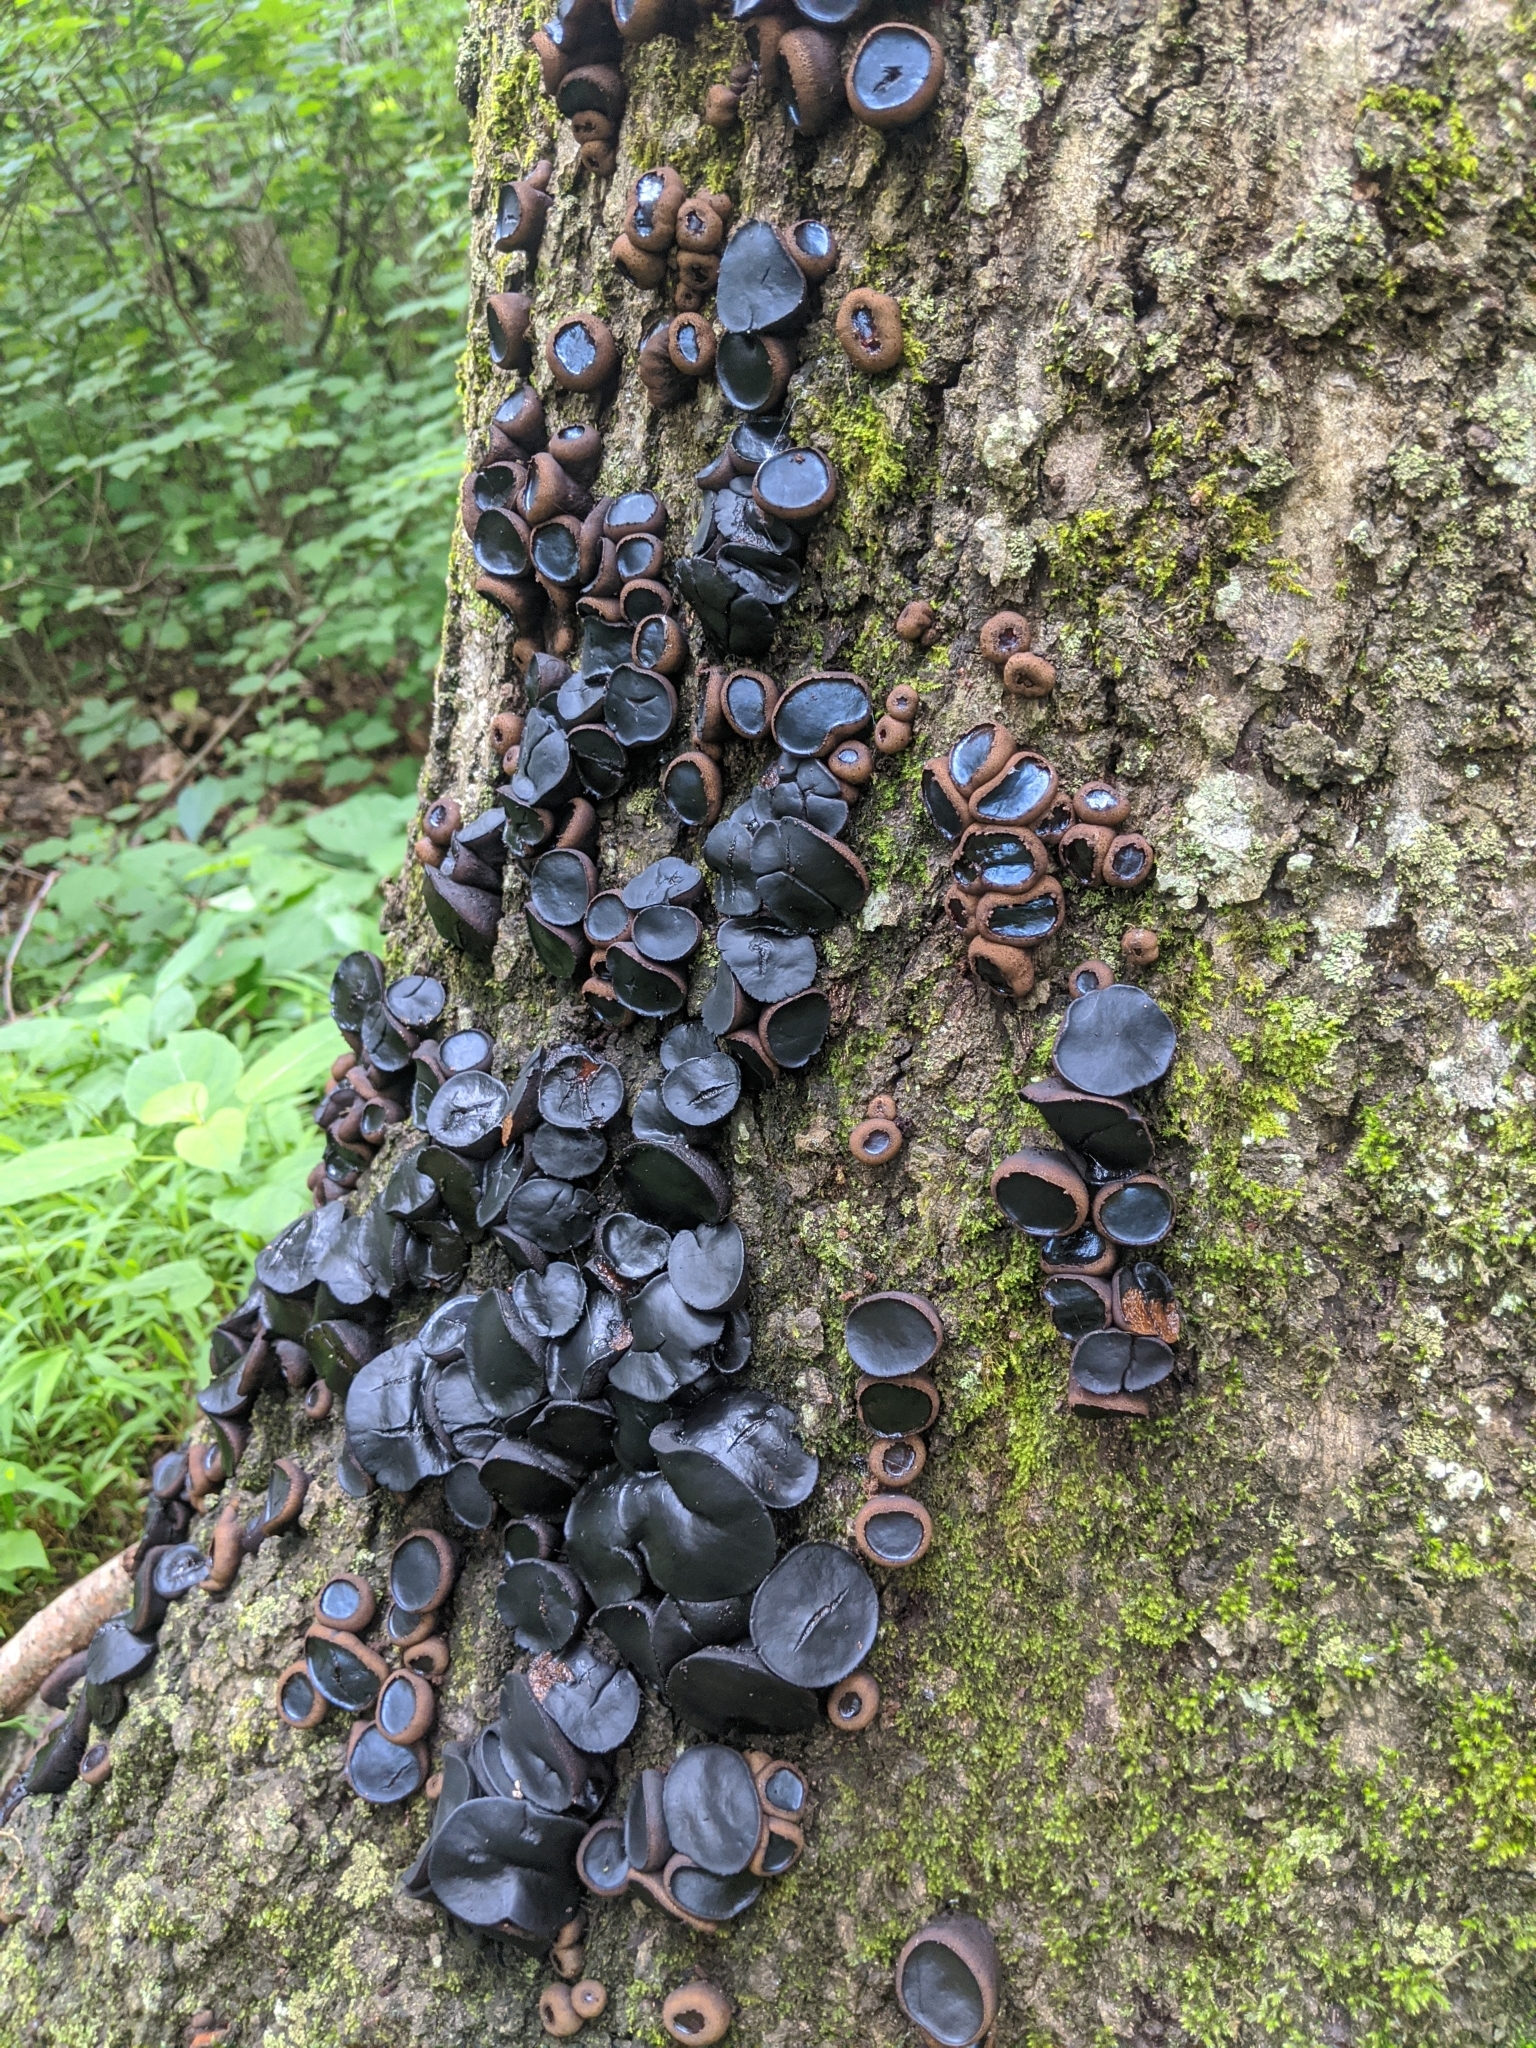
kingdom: Fungi
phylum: Ascomycota
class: Leotiomycetes
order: Phacidiales
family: Phacidiaceae
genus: Bulgaria
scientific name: Bulgaria inquinans
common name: Black bulgar
